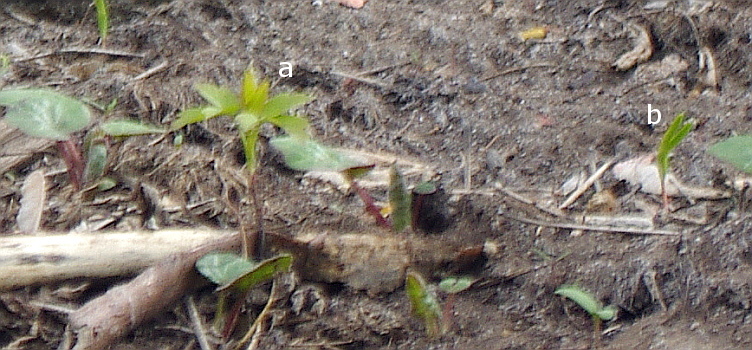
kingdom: Plantae
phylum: Tracheophyta
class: Magnoliopsida
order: Sapindales
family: Sapindaceae
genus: Acer
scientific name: Acer negundo
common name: Ashleaf maple
